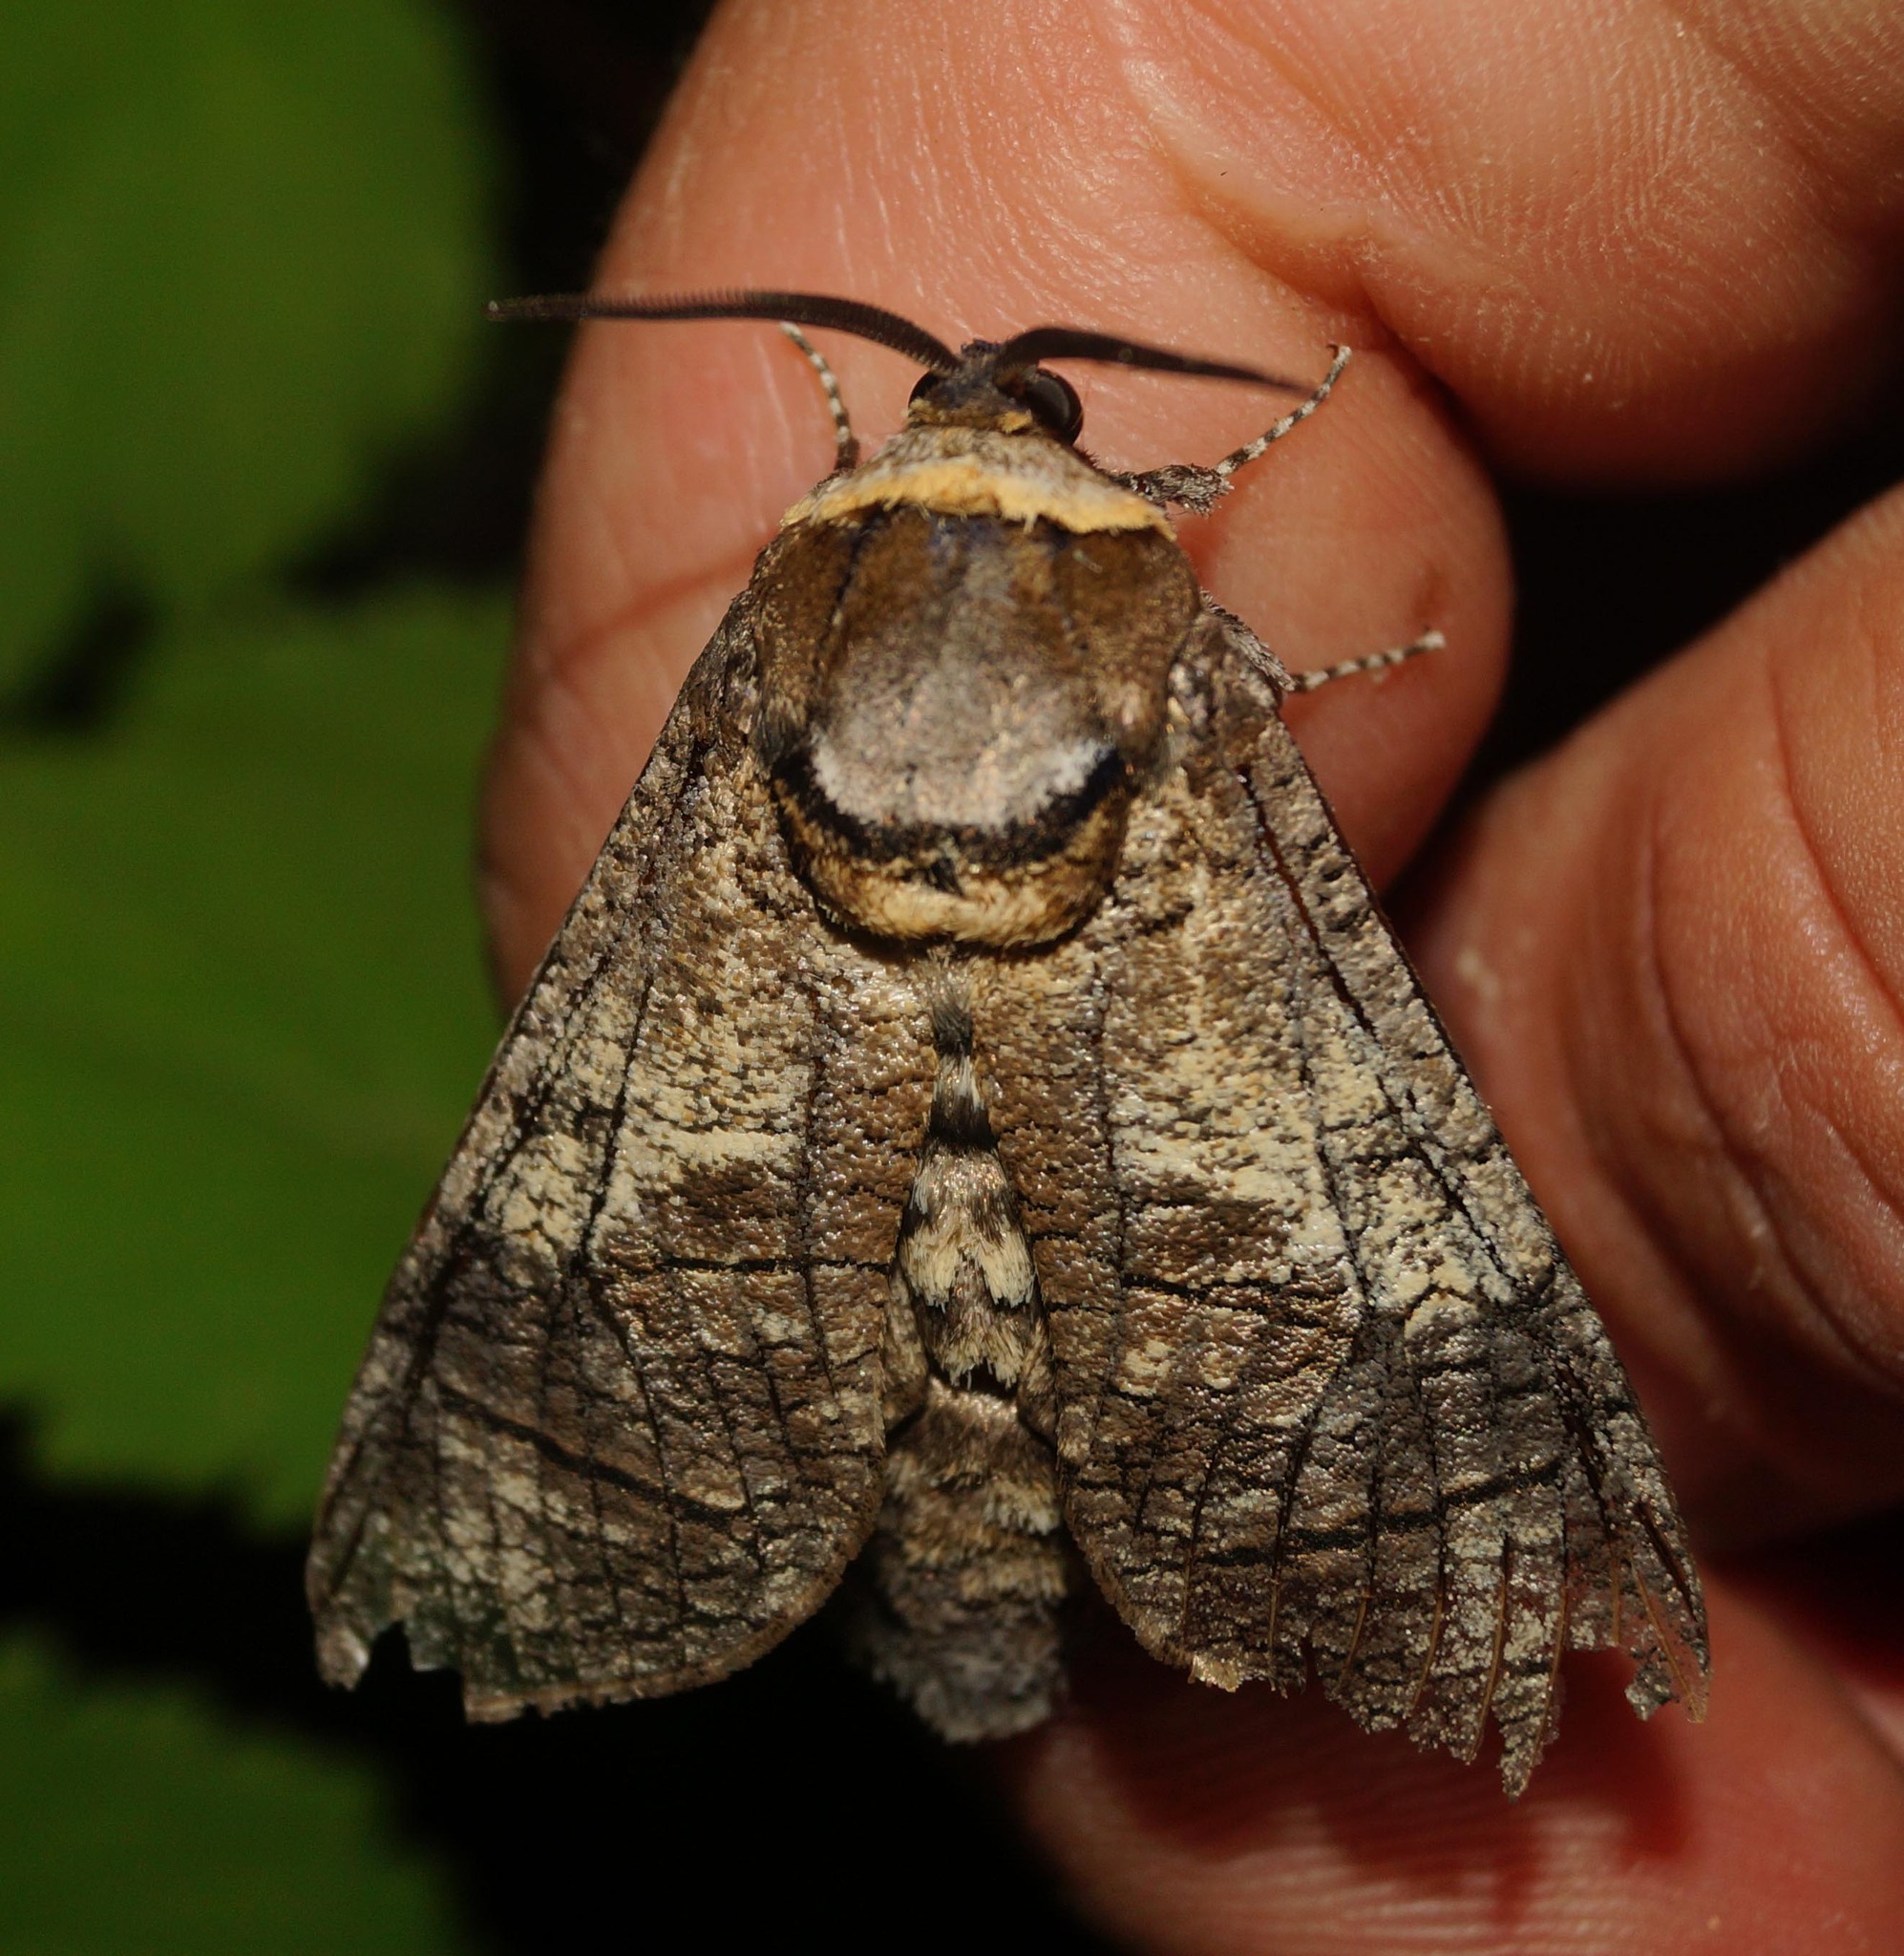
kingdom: Animalia
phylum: Arthropoda
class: Insecta
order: Lepidoptera
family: Cossidae
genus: Cossus
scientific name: Cossus cossus
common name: Goat moth
